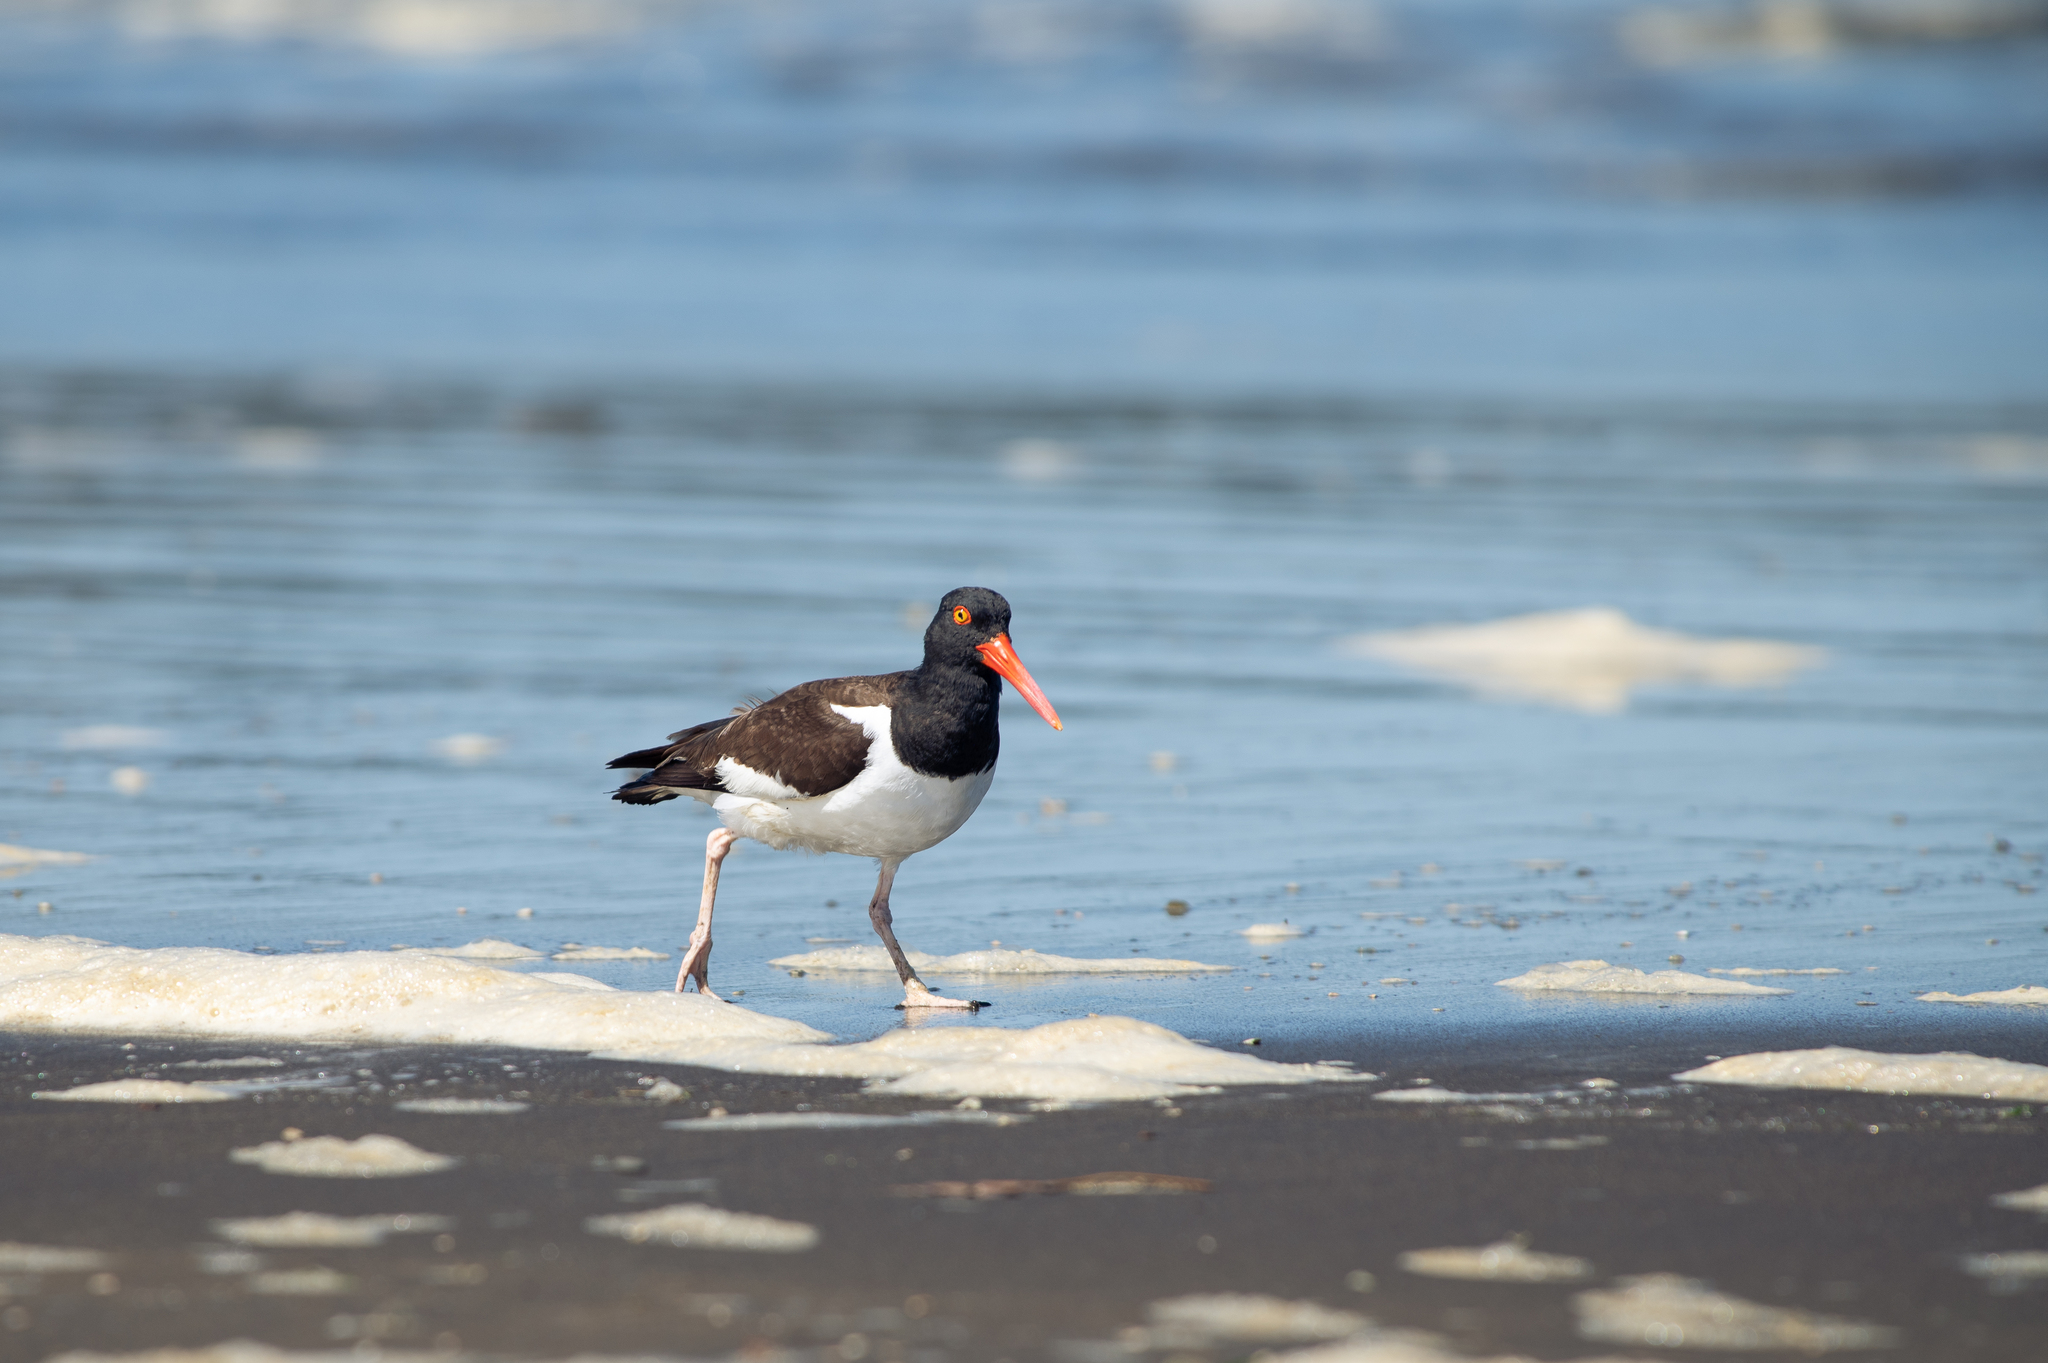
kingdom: Animalia
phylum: Chordata
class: Aves
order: Charadriiformes
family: Haematopodidae
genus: Haematopus
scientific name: Haematopus palliatus
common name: American oystercatcher
